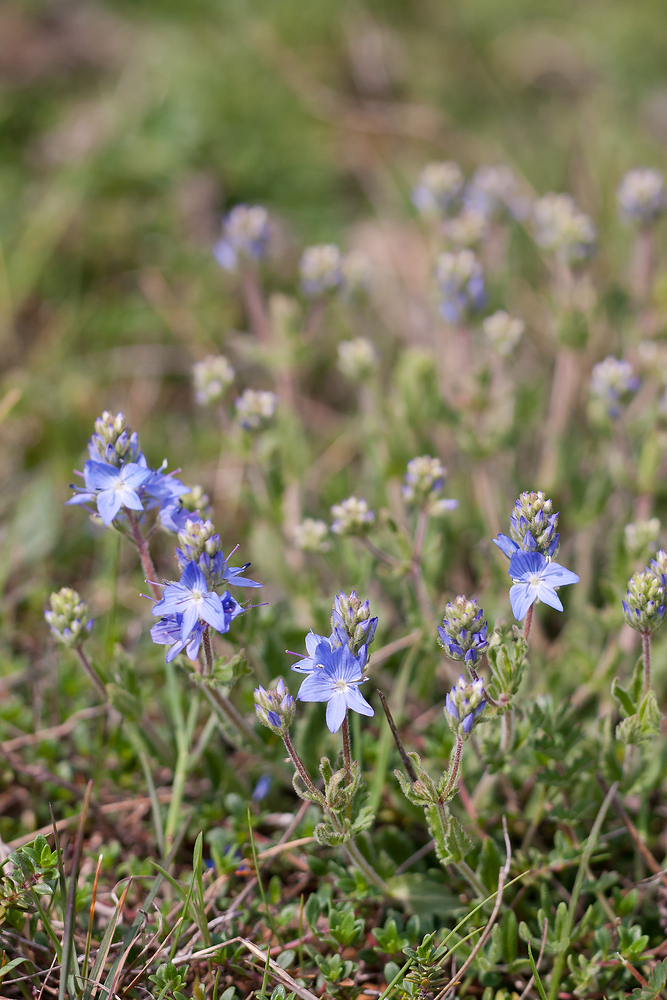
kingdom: Plantae
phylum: Tracheophyta
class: Magnoliopsida
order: Lamiales
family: Plantaginaceae
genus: Veronica
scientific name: Veronica orsiniana
